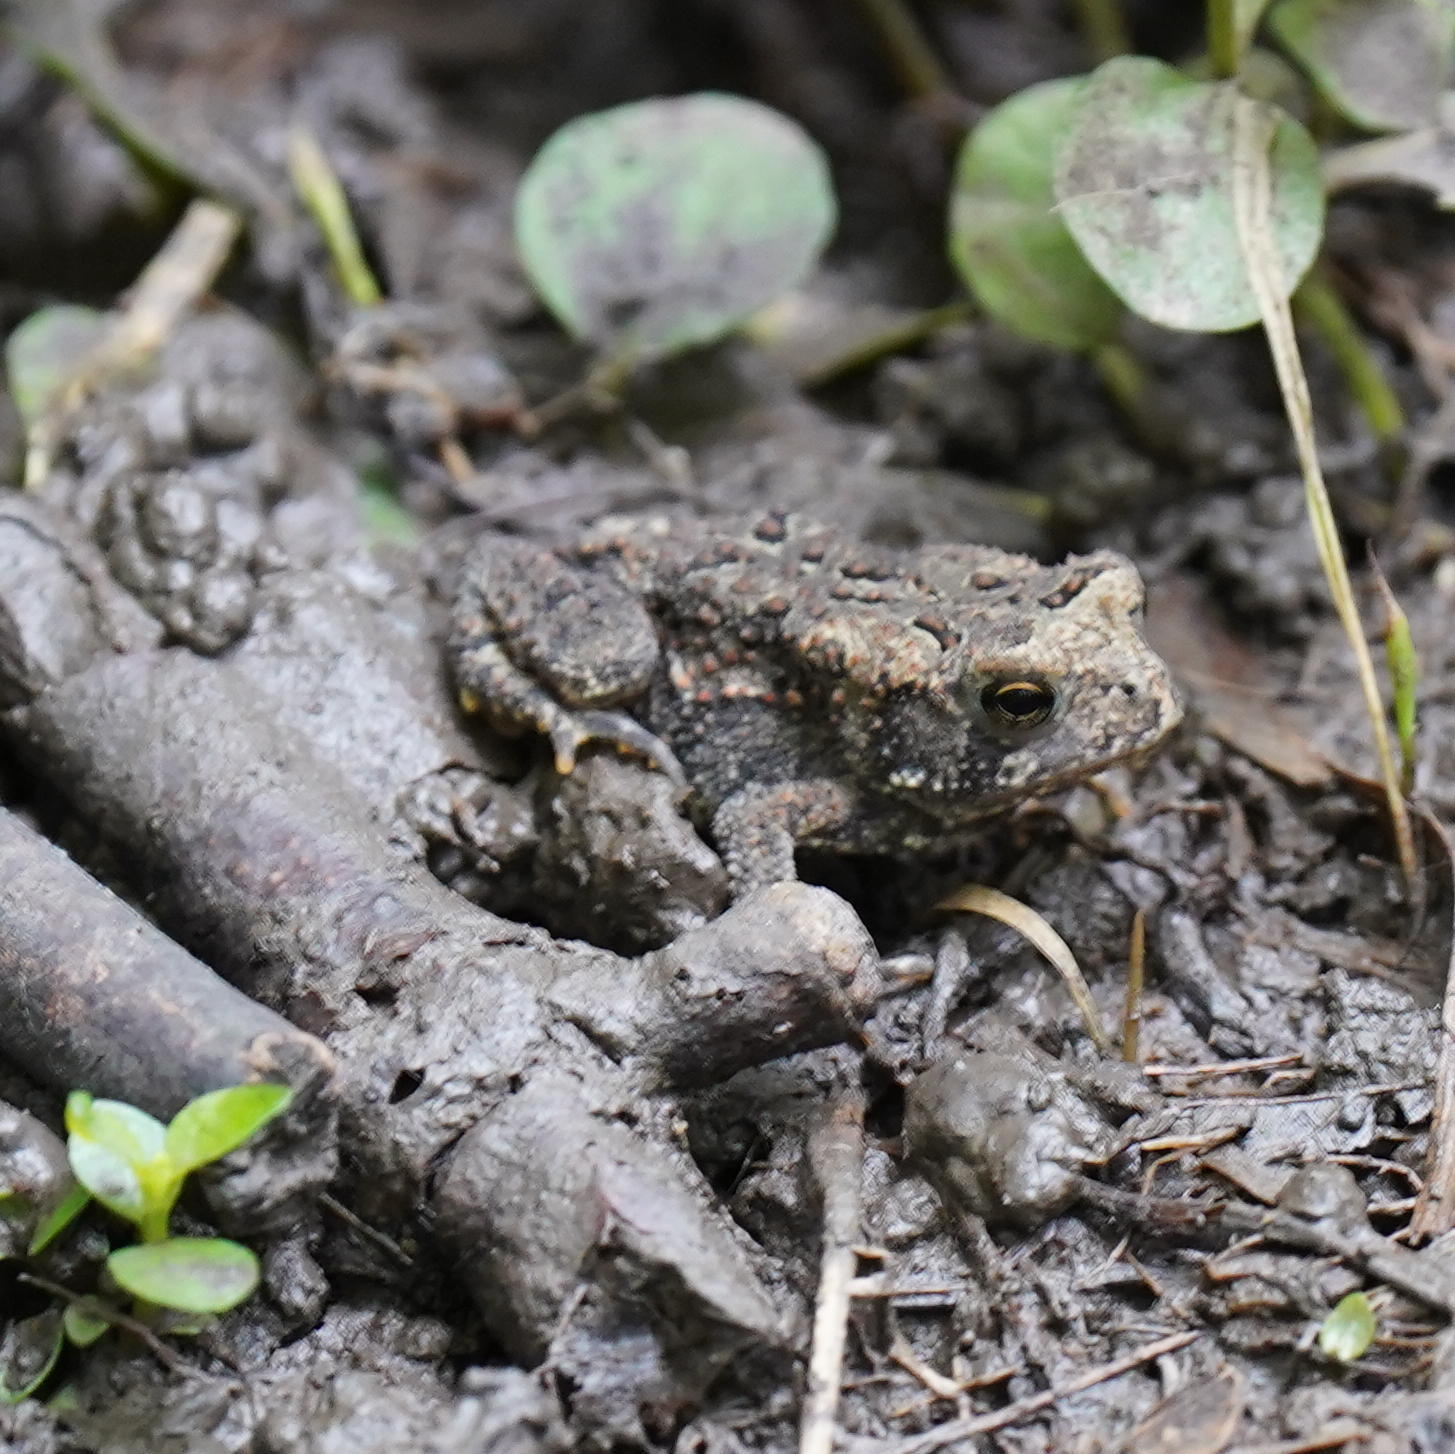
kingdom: Animalia
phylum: Chordata
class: Amphibia
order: Anura
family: Bufonidae
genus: Anaxyrus
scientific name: Anaxyrus americanus
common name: American toad
